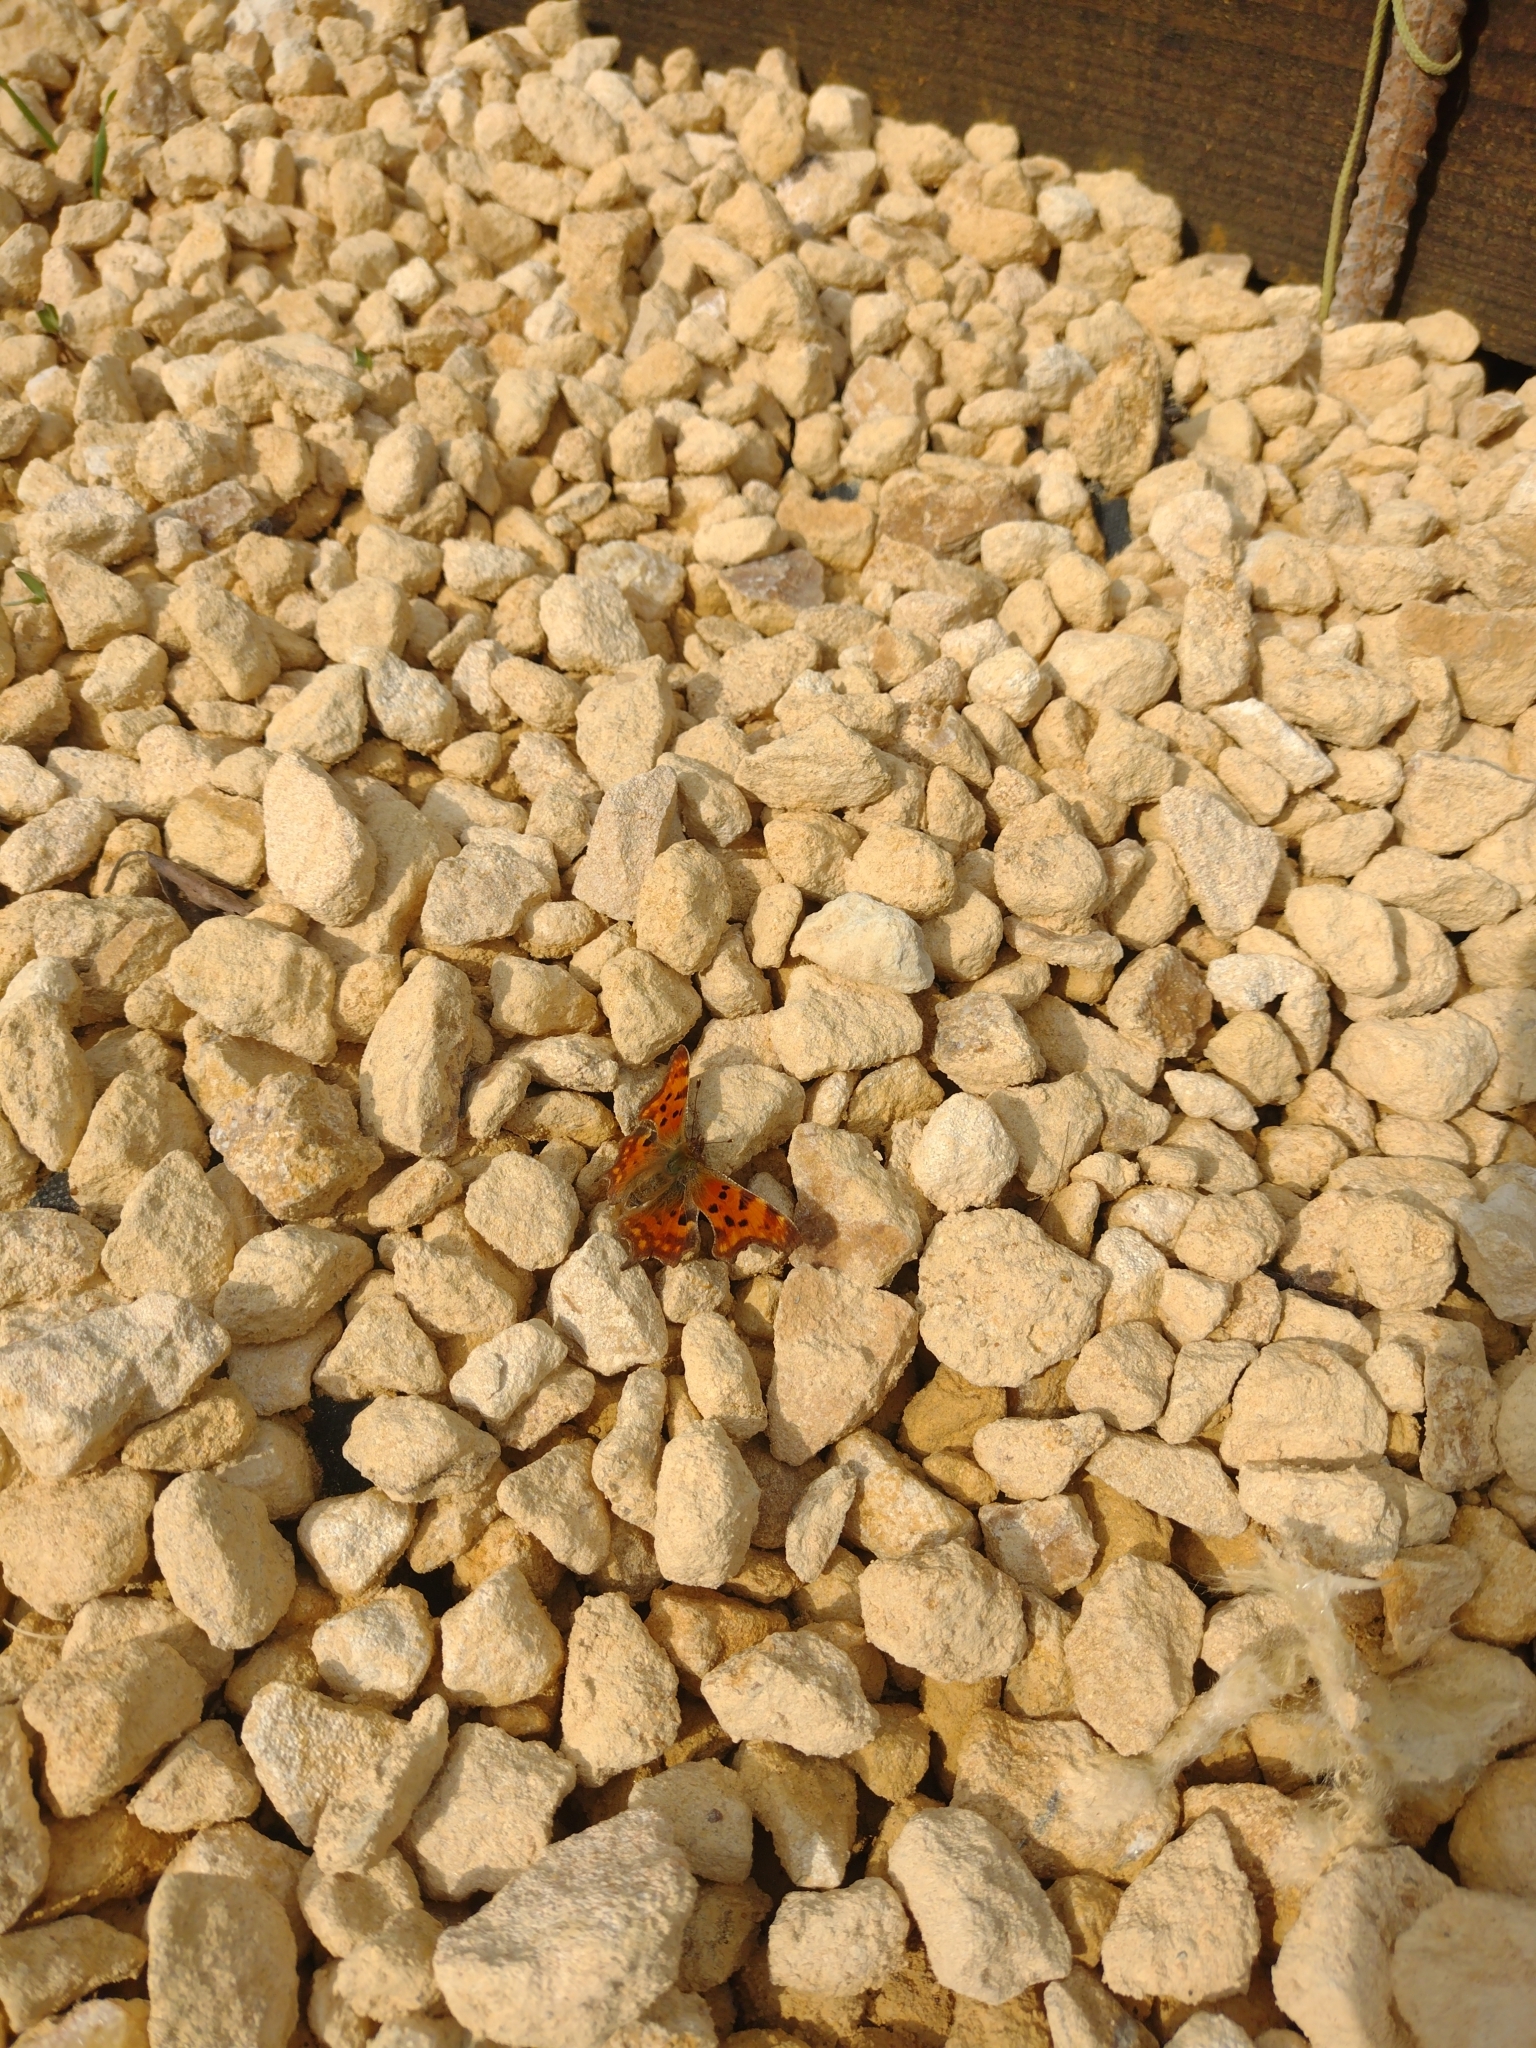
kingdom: Animalia
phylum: Arthropoda
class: Insecta
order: Lepidoptera
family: Nymphalidae
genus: Polygonia
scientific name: Polygonia c-album
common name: Comma
